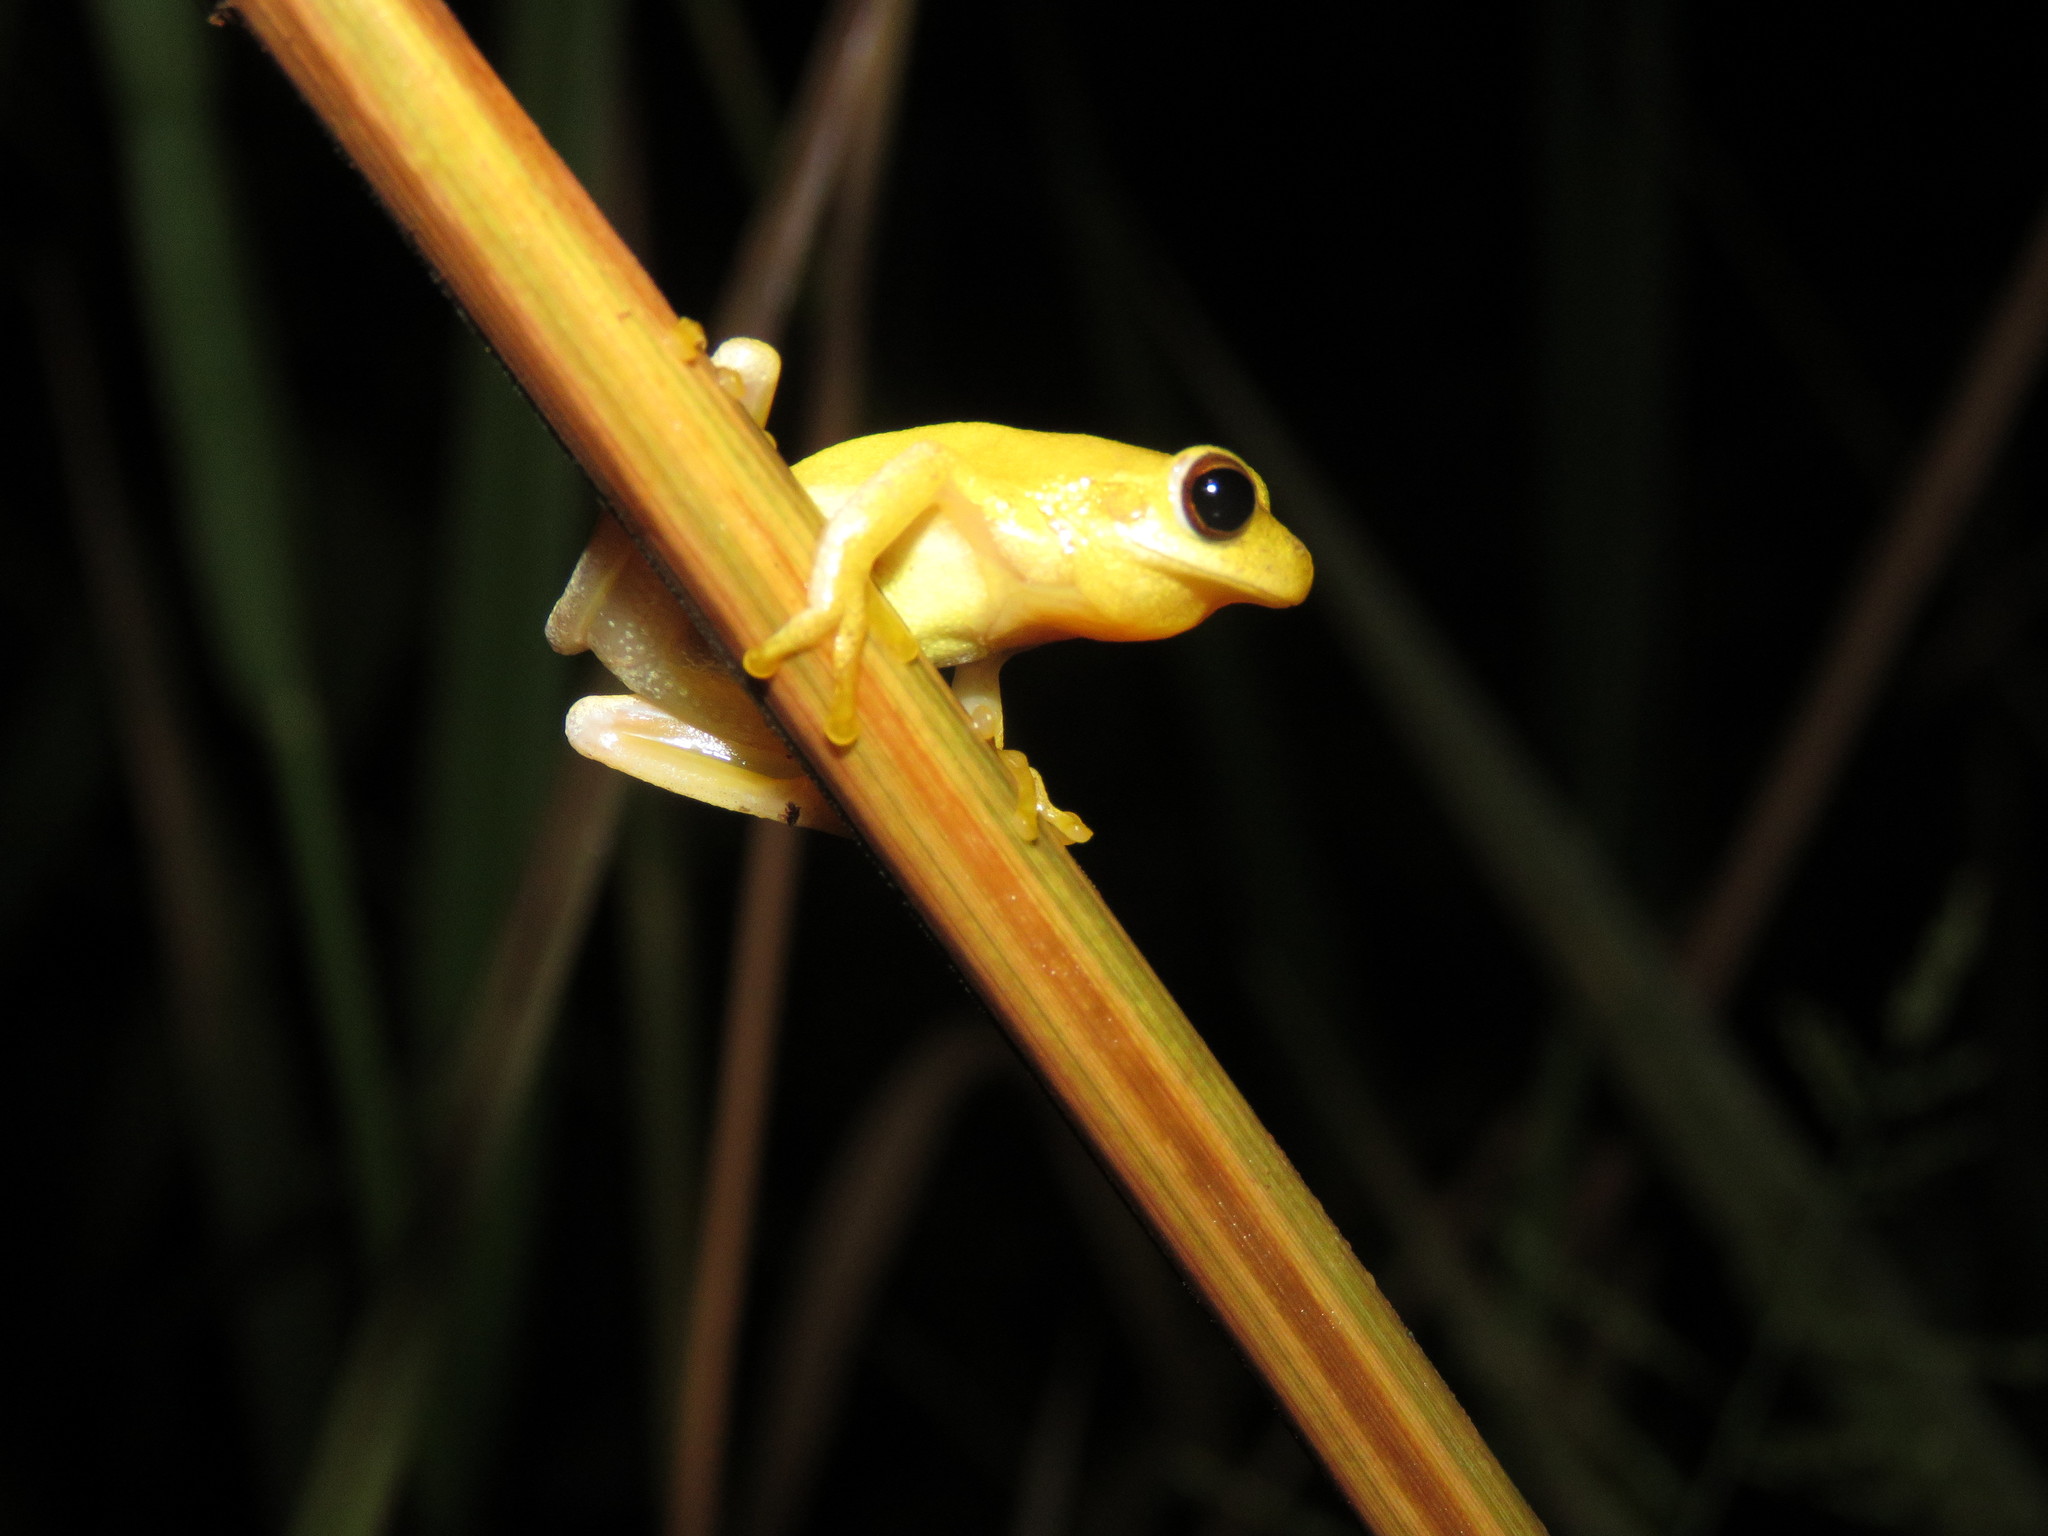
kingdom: Animalia
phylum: Chordata
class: Amphibia
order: Anura
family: Hylidae
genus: Dendropsophus
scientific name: Dendropsophus leali
